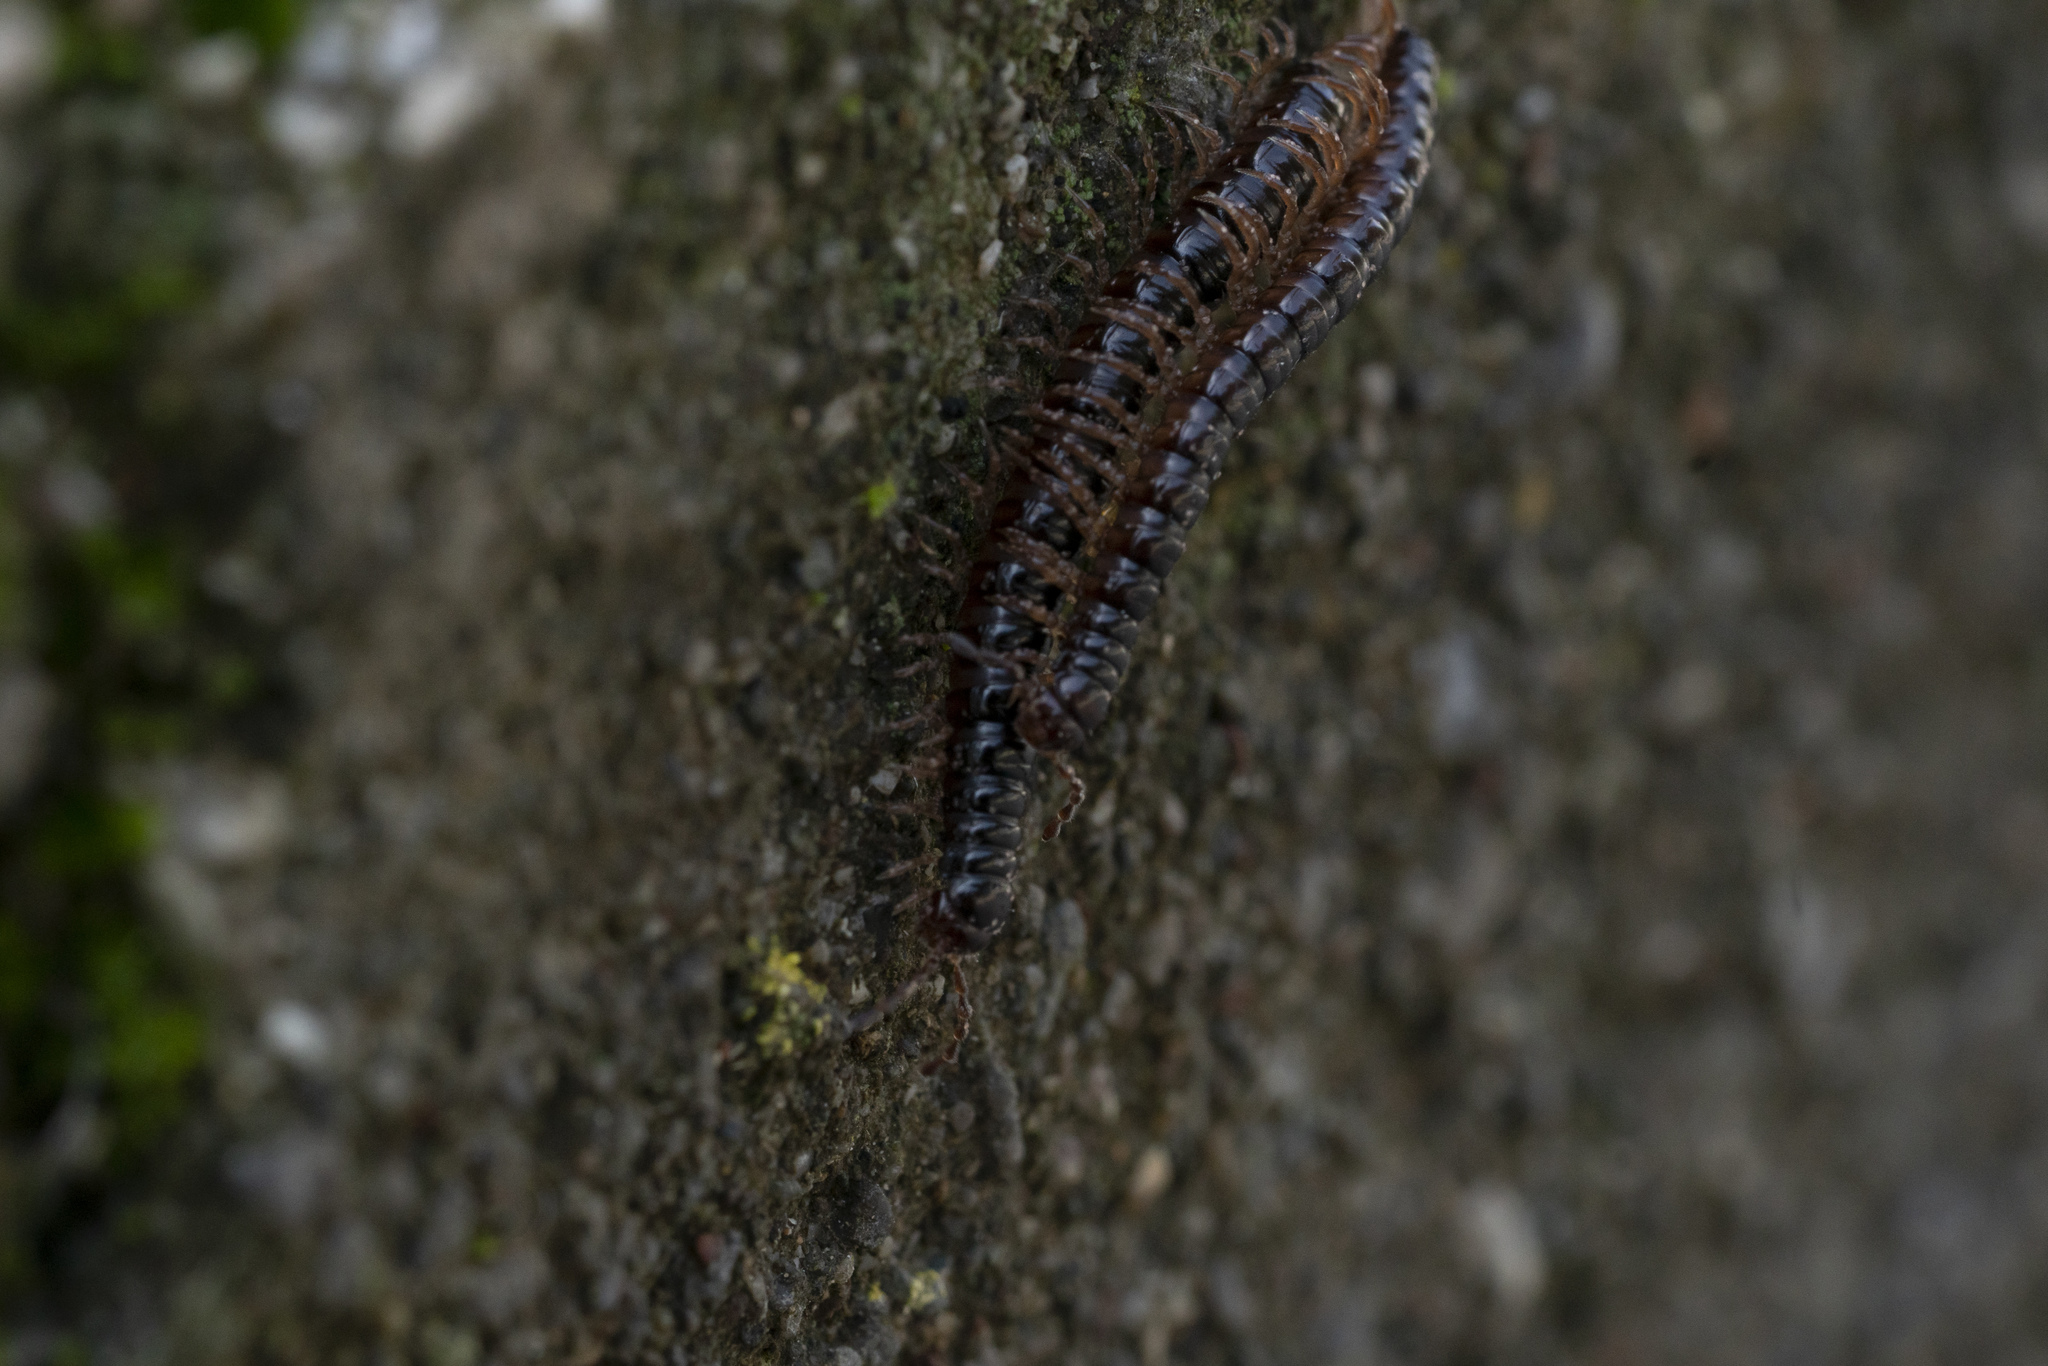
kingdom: Animalia
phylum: Arthropoda
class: Diplopoda
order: Polydesmida
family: Paradoxosomatidae
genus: Tetrarthrosoma
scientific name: Tetrarthrosoma pallidicephalum
